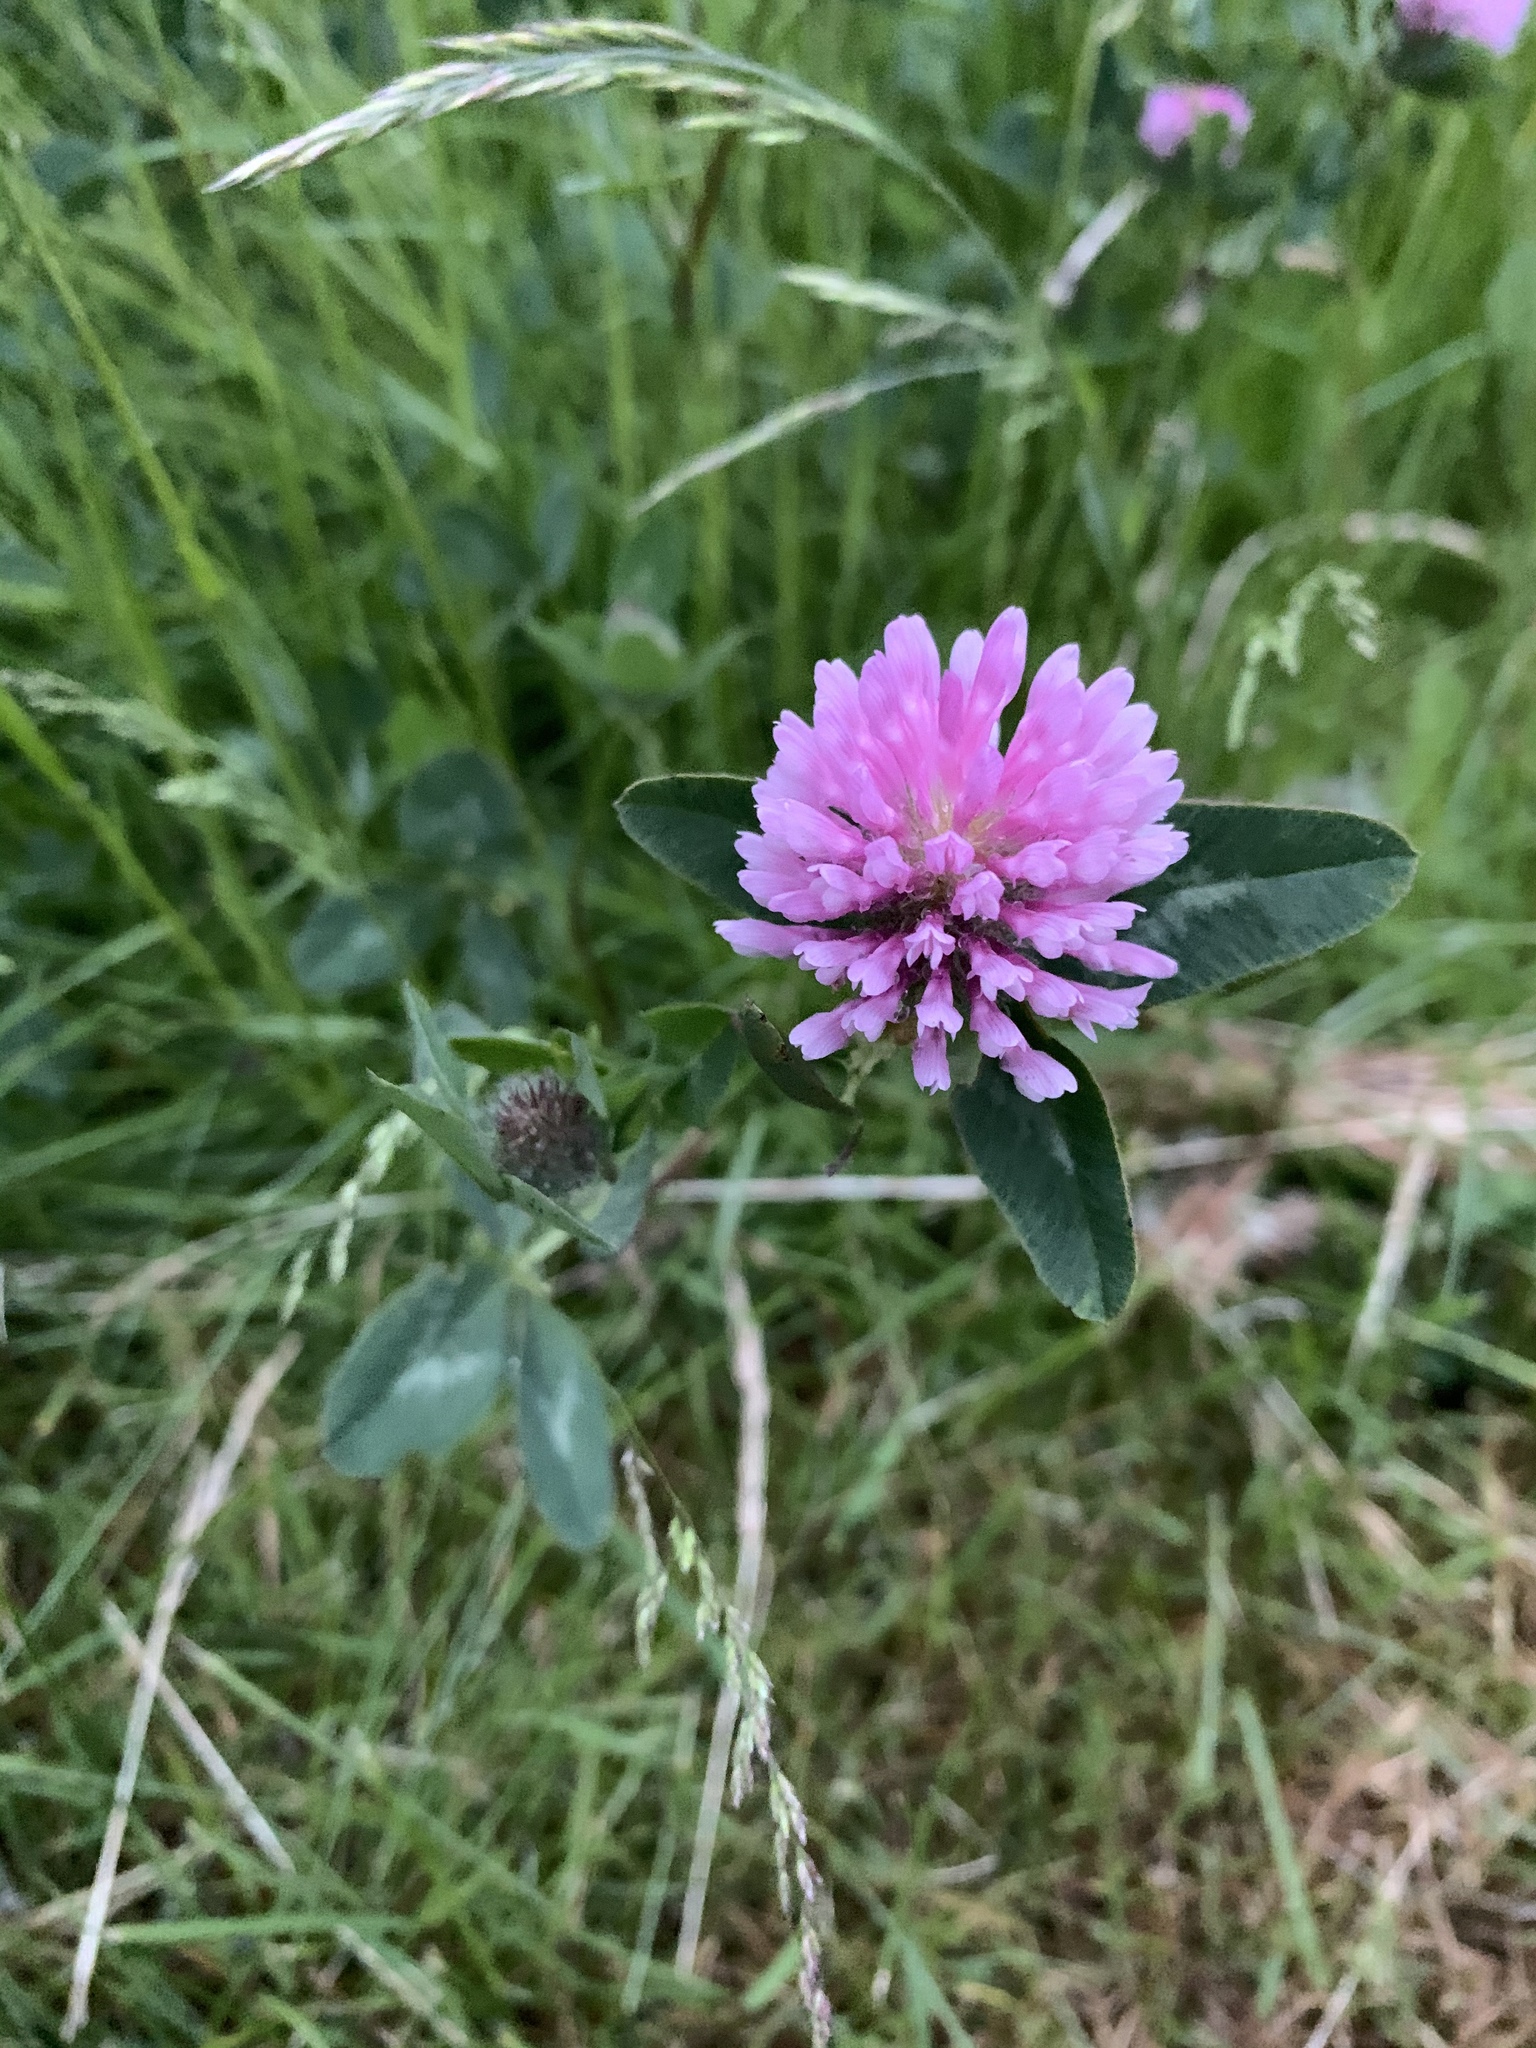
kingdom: Plantae
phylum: Tracheophyta
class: Magnoliopsida
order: Fabales
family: Fabaceae
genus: Trifolium
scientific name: Trifolium pratense
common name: Red clover
